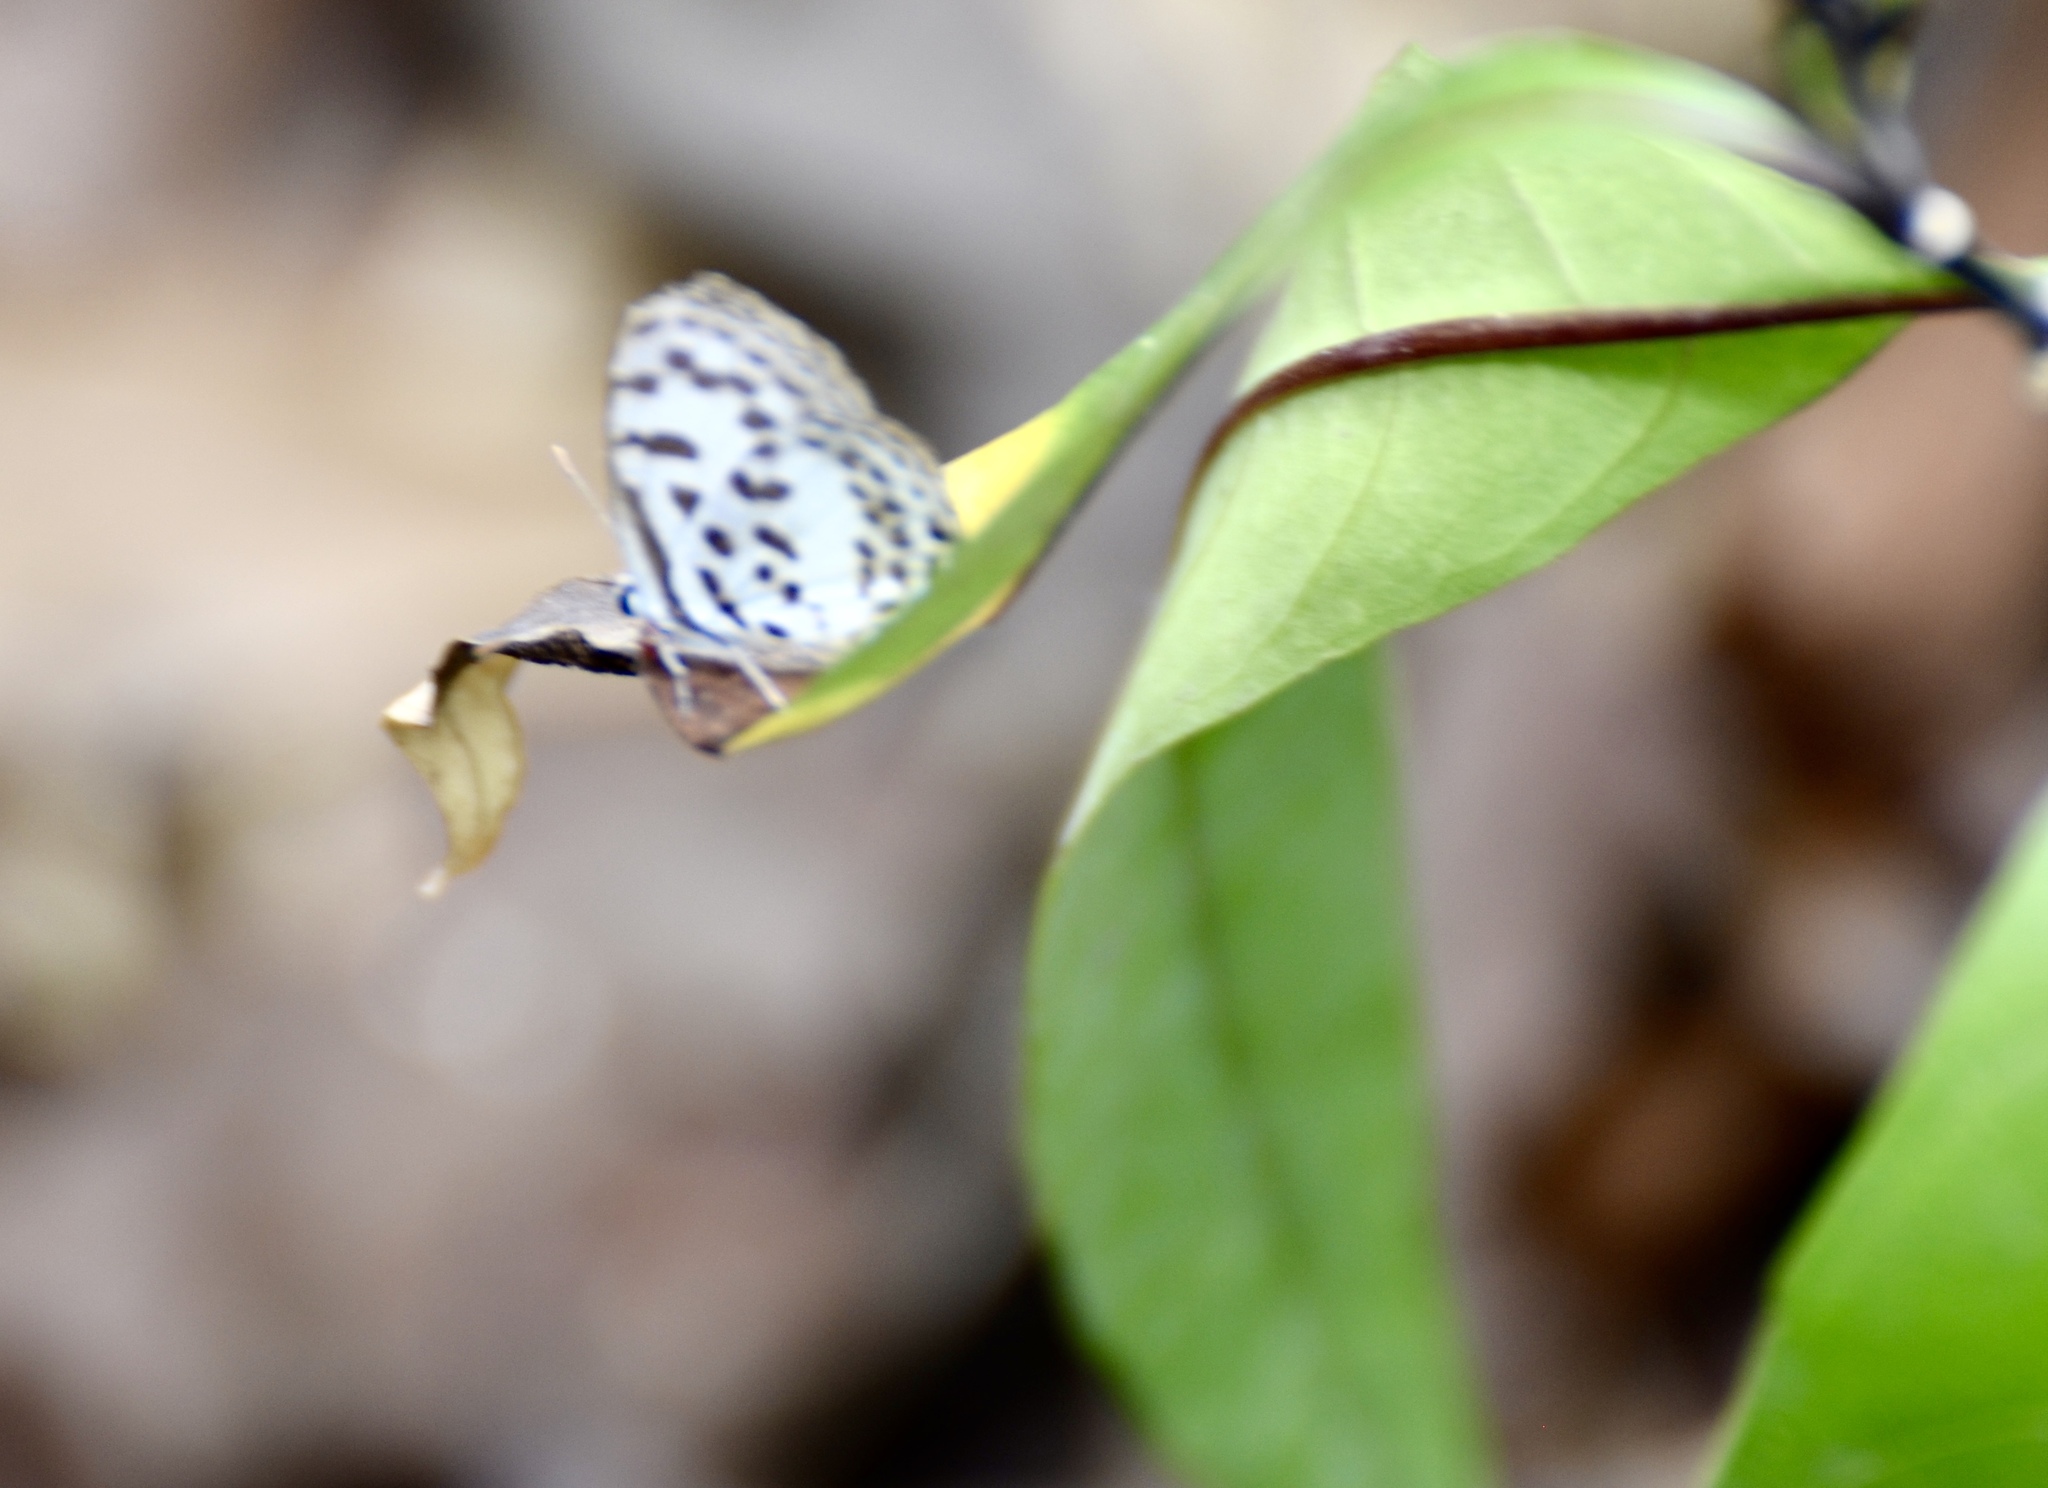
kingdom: Animalia
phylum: Arthropoda
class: Insecta
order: Lepidoptera
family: Lycaenidae
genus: Castalius
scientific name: Castalius rosimon
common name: Common pierrot
